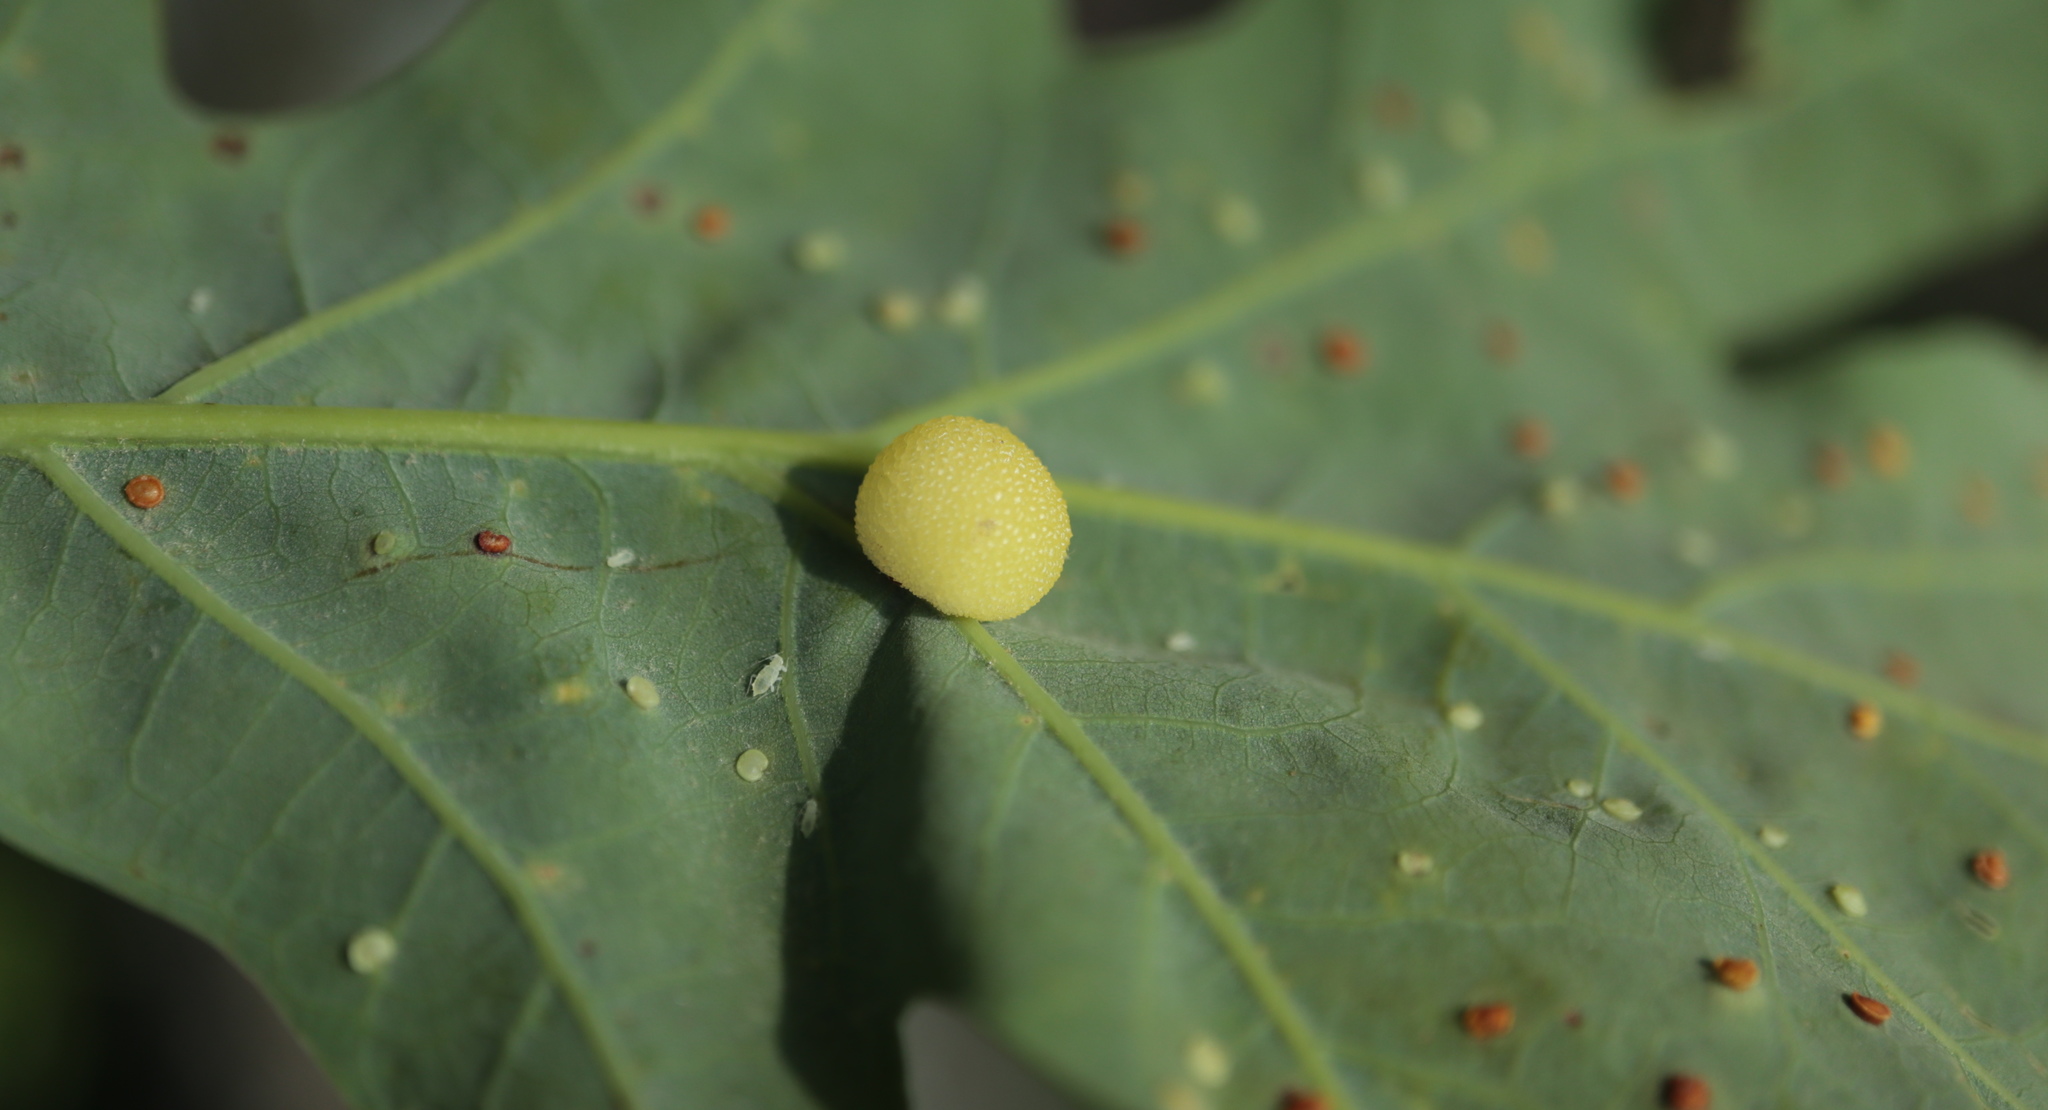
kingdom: Animalia
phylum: Arthropoda
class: Insecta
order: Hymenoptera
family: Cynipidae
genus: Acraspis
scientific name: Acraspis
